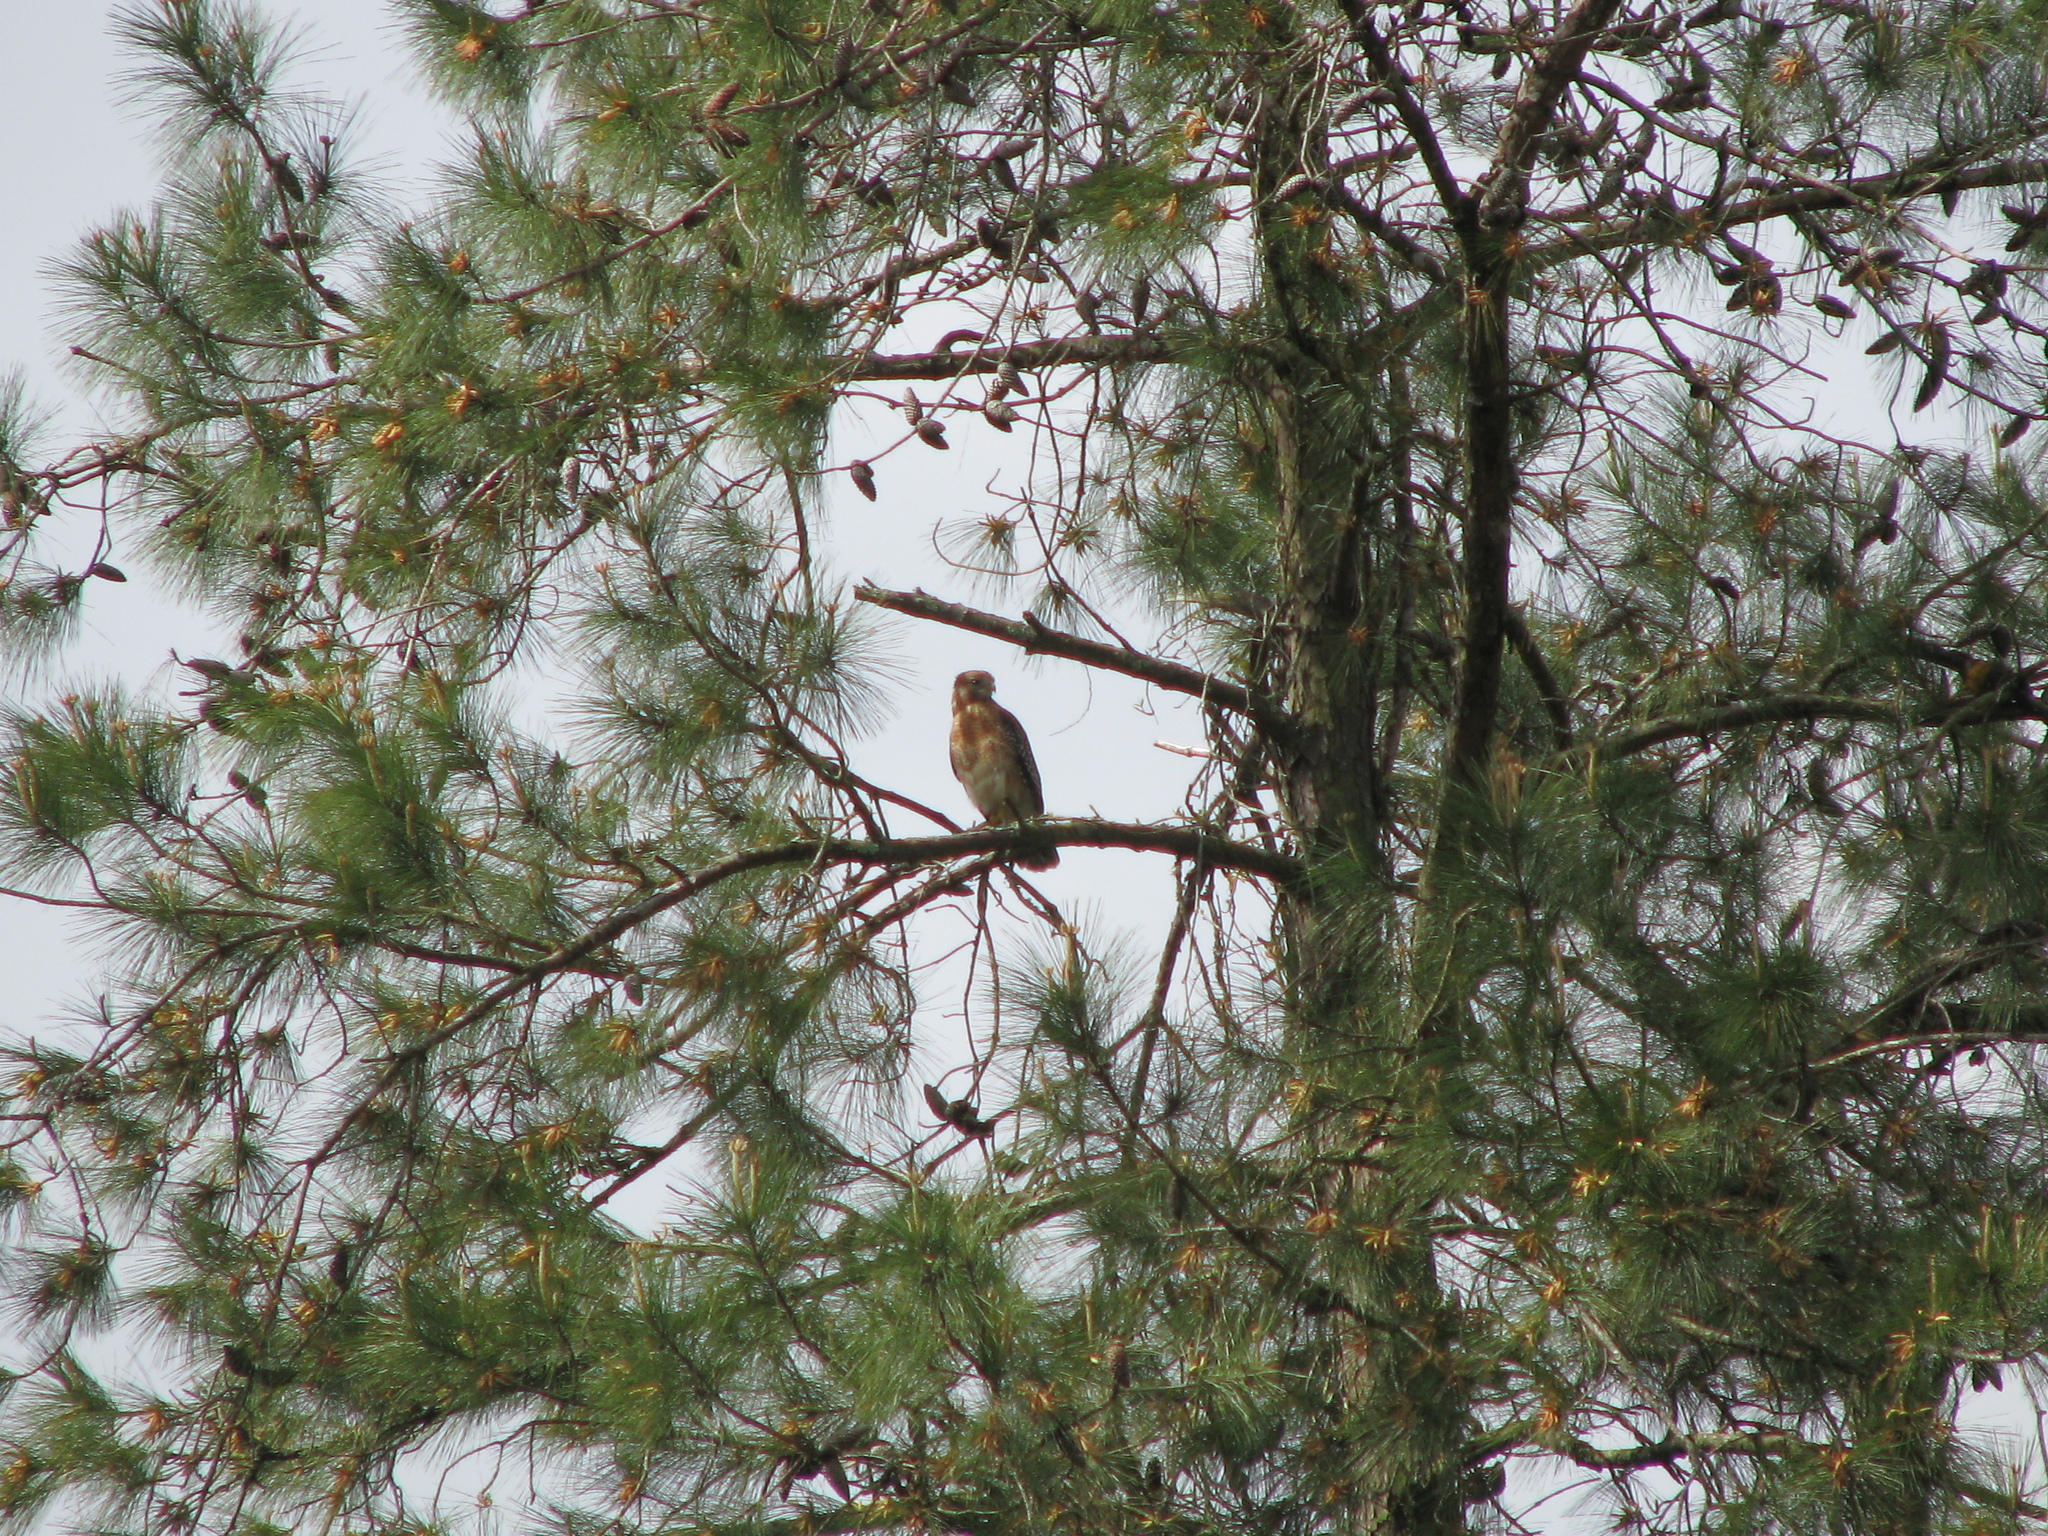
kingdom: Animalia
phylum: Chordata
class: Aves
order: Accipitriformes
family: Accipitridae
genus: Buteo
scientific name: Buteo lineatus
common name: Red-shouldered hawk
